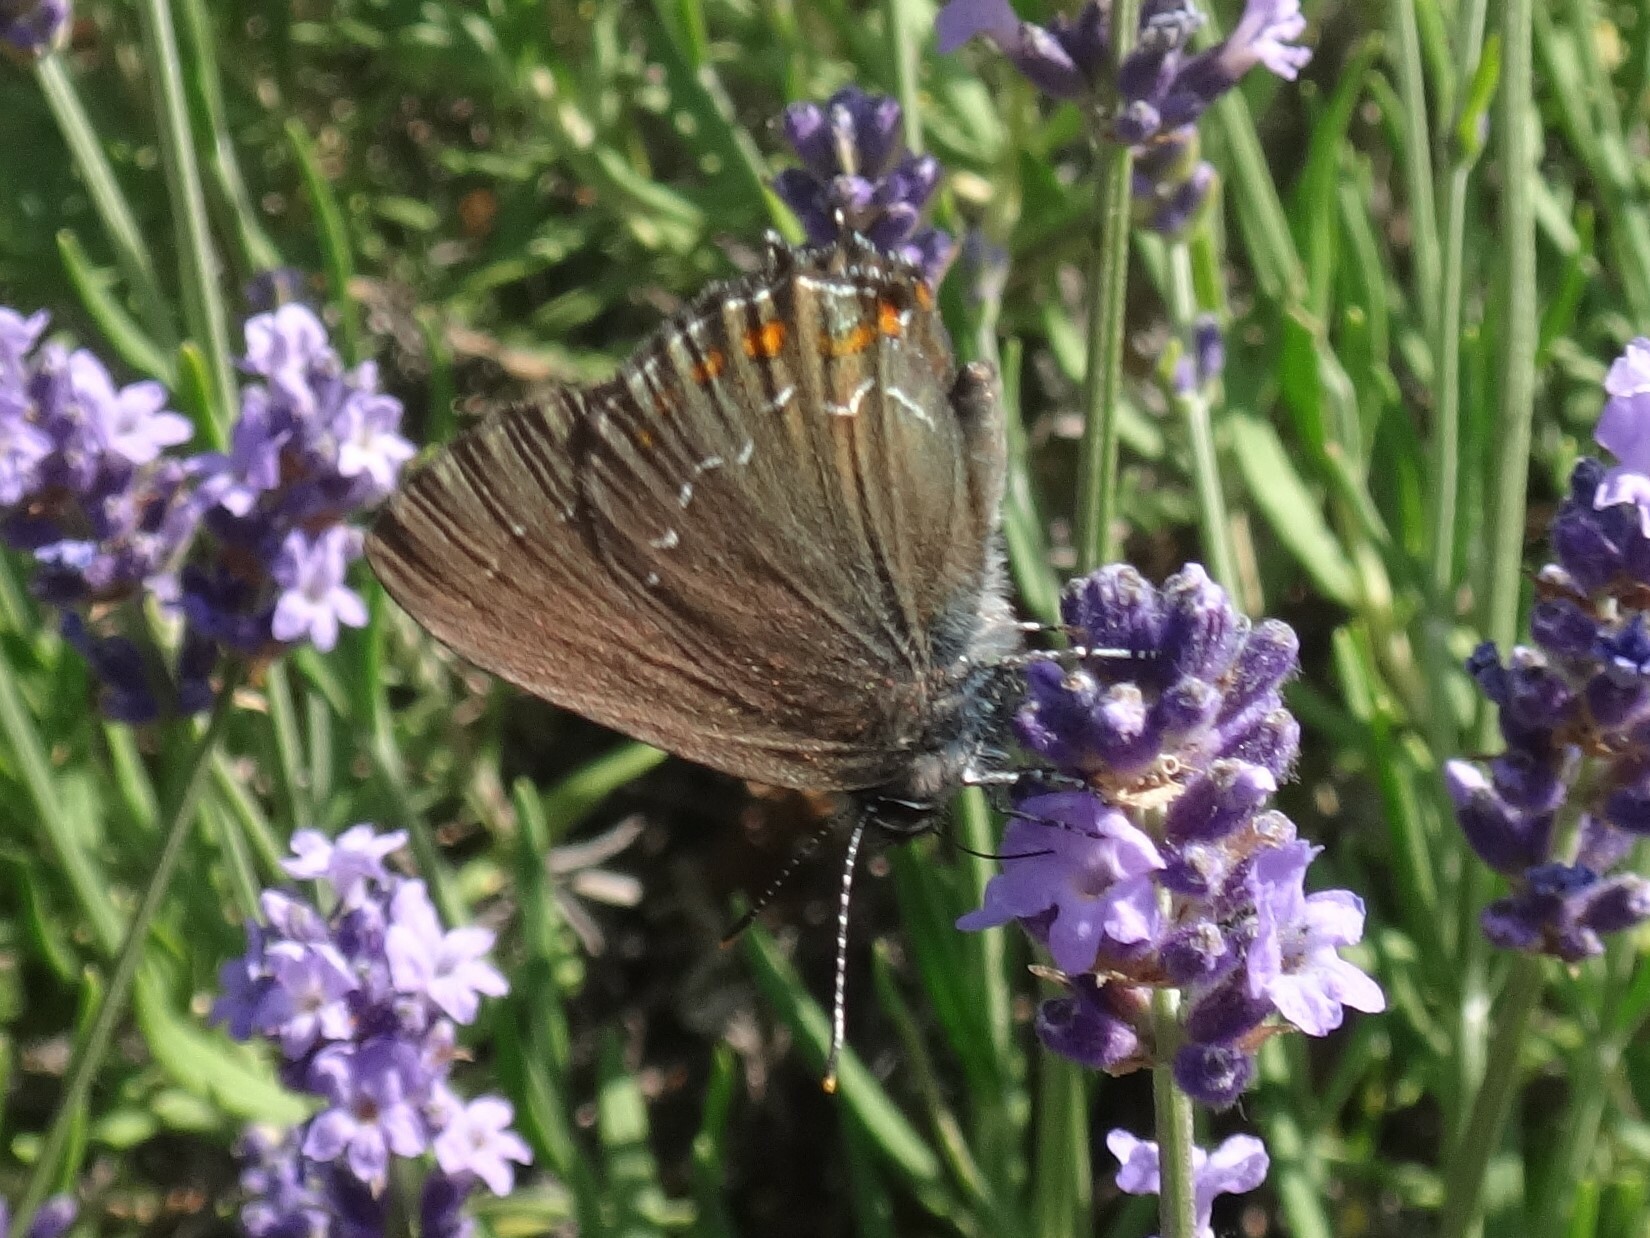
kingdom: Animalia
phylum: Arthropoda
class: Insecta
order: Lepidoptera
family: Lycaenidae
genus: Nordmannia
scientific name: Nordmannia ilicis
